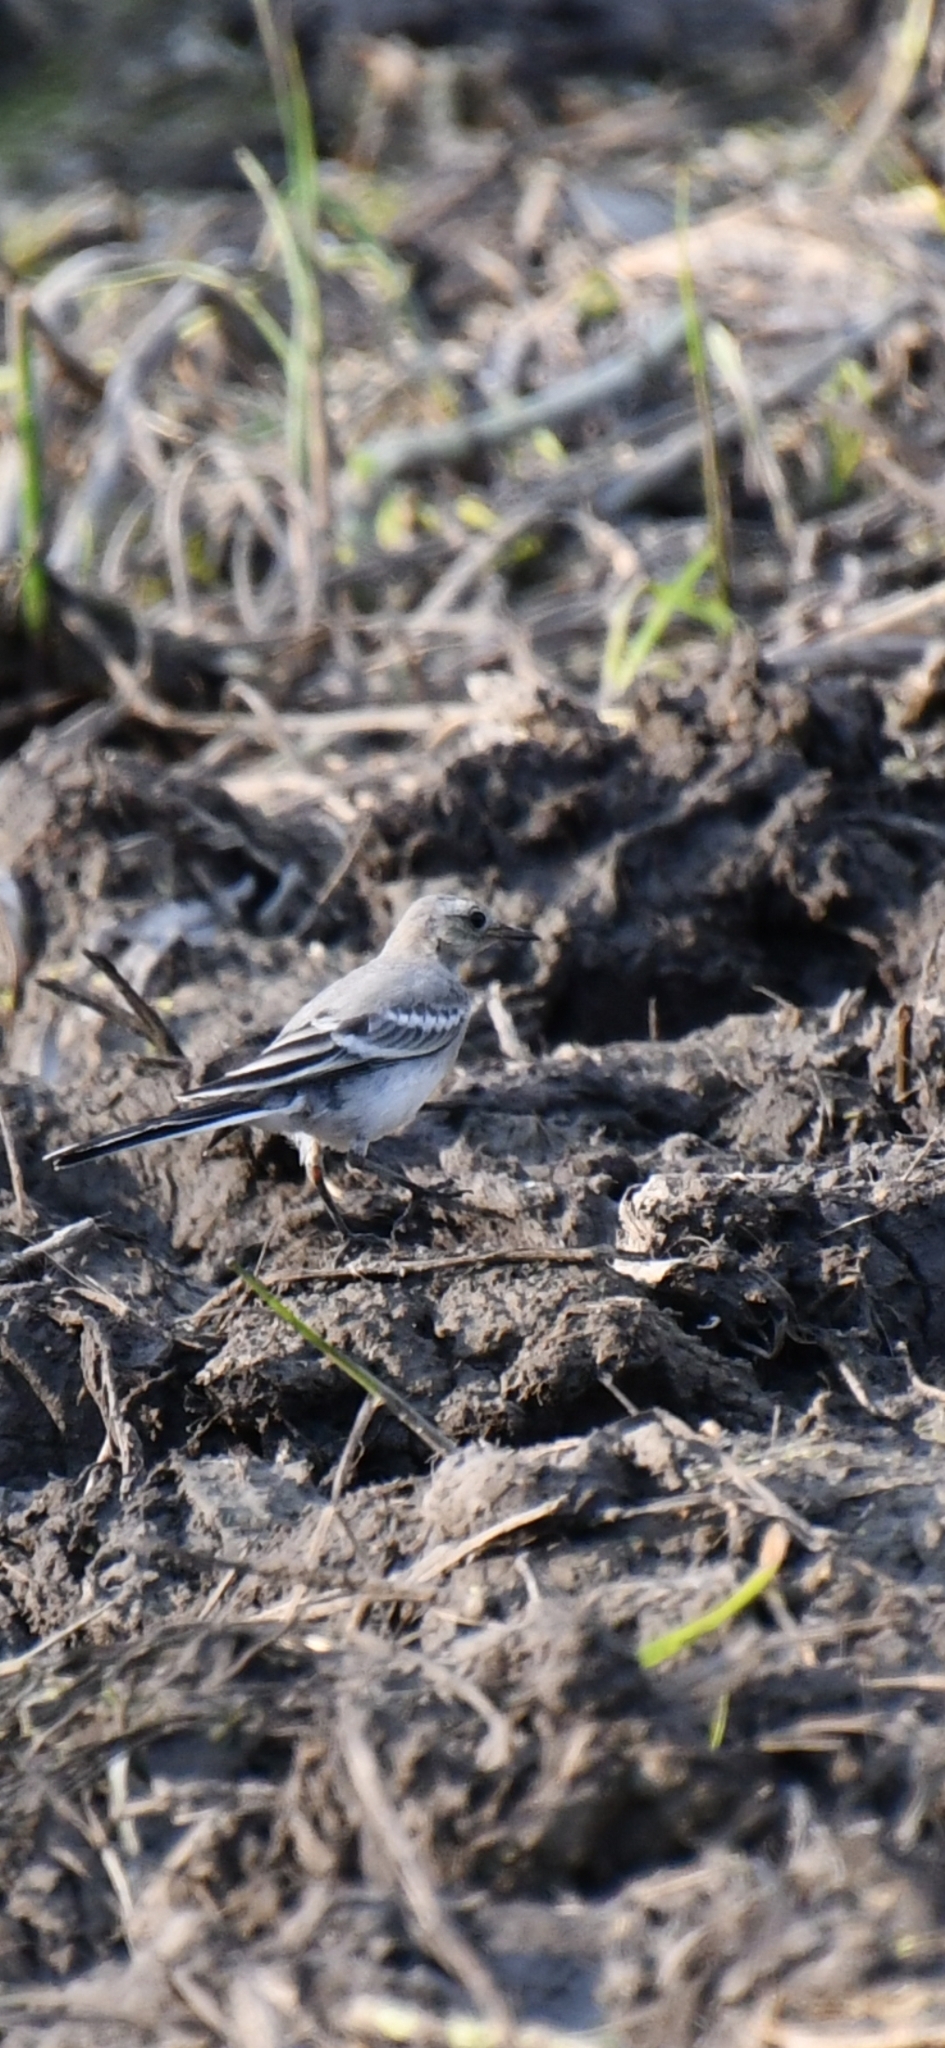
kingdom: Animalia
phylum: Chordata
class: Aves
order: Passeriformes
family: Motacillidae
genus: Motacilla
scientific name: Motacilla alba
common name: White wagtail
